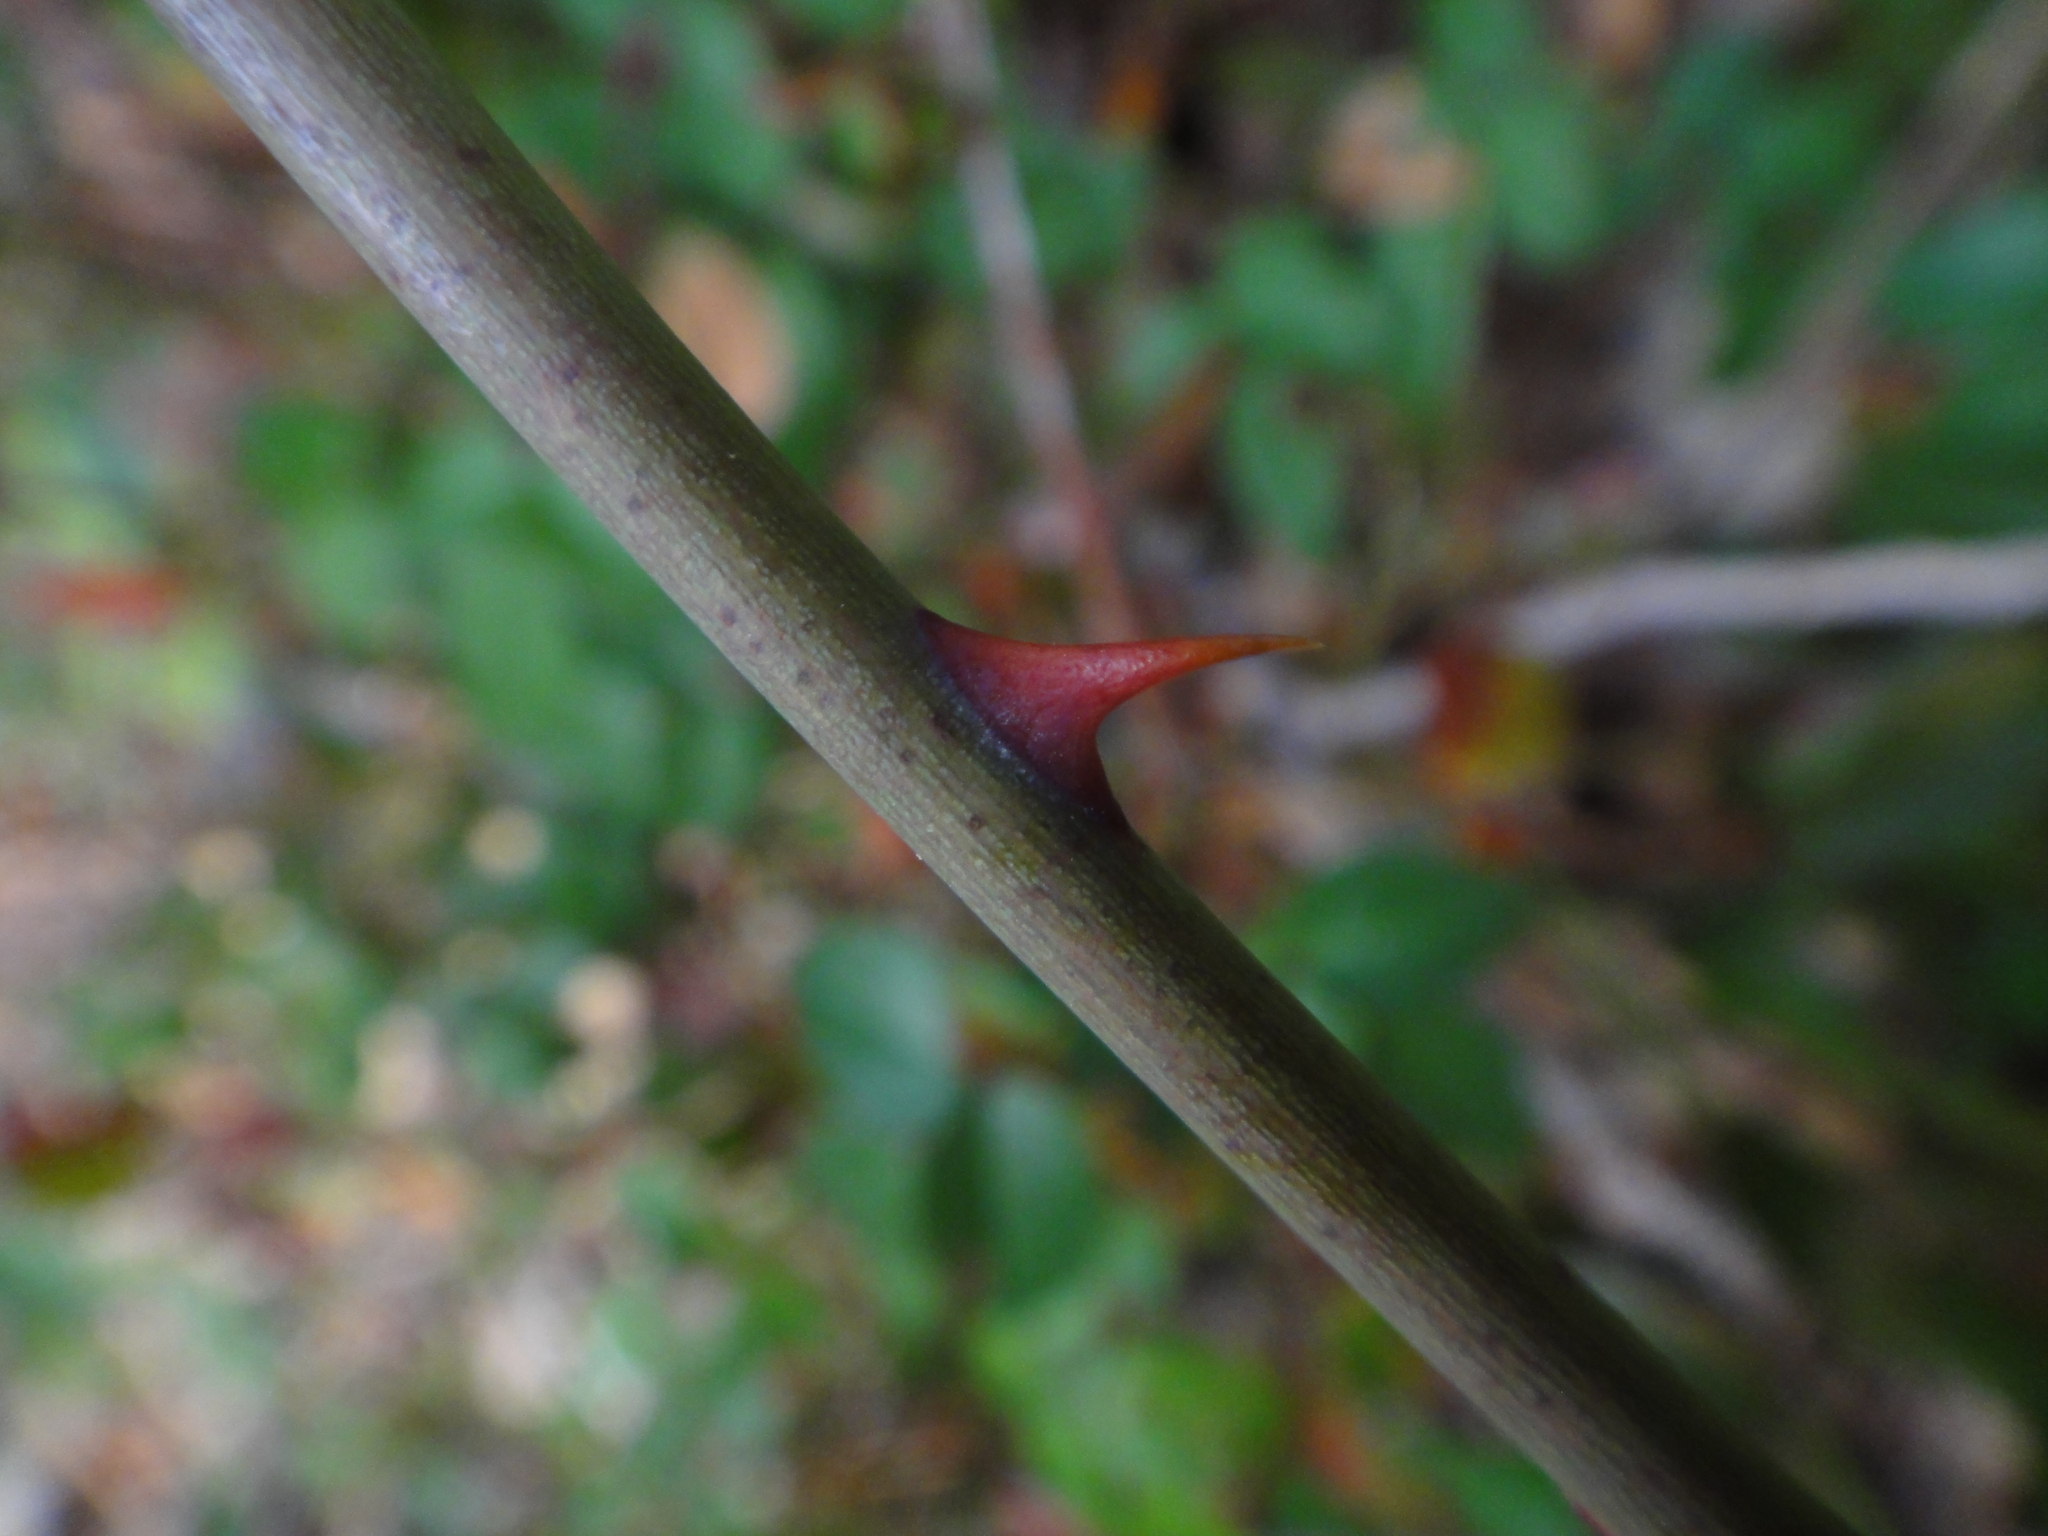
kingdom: Plantae
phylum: Tracheophyta
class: Magnoliopsida
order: Rosales
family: Rosaceae
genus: Rosa
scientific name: Rosa sempervirens
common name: Evergreen rose
